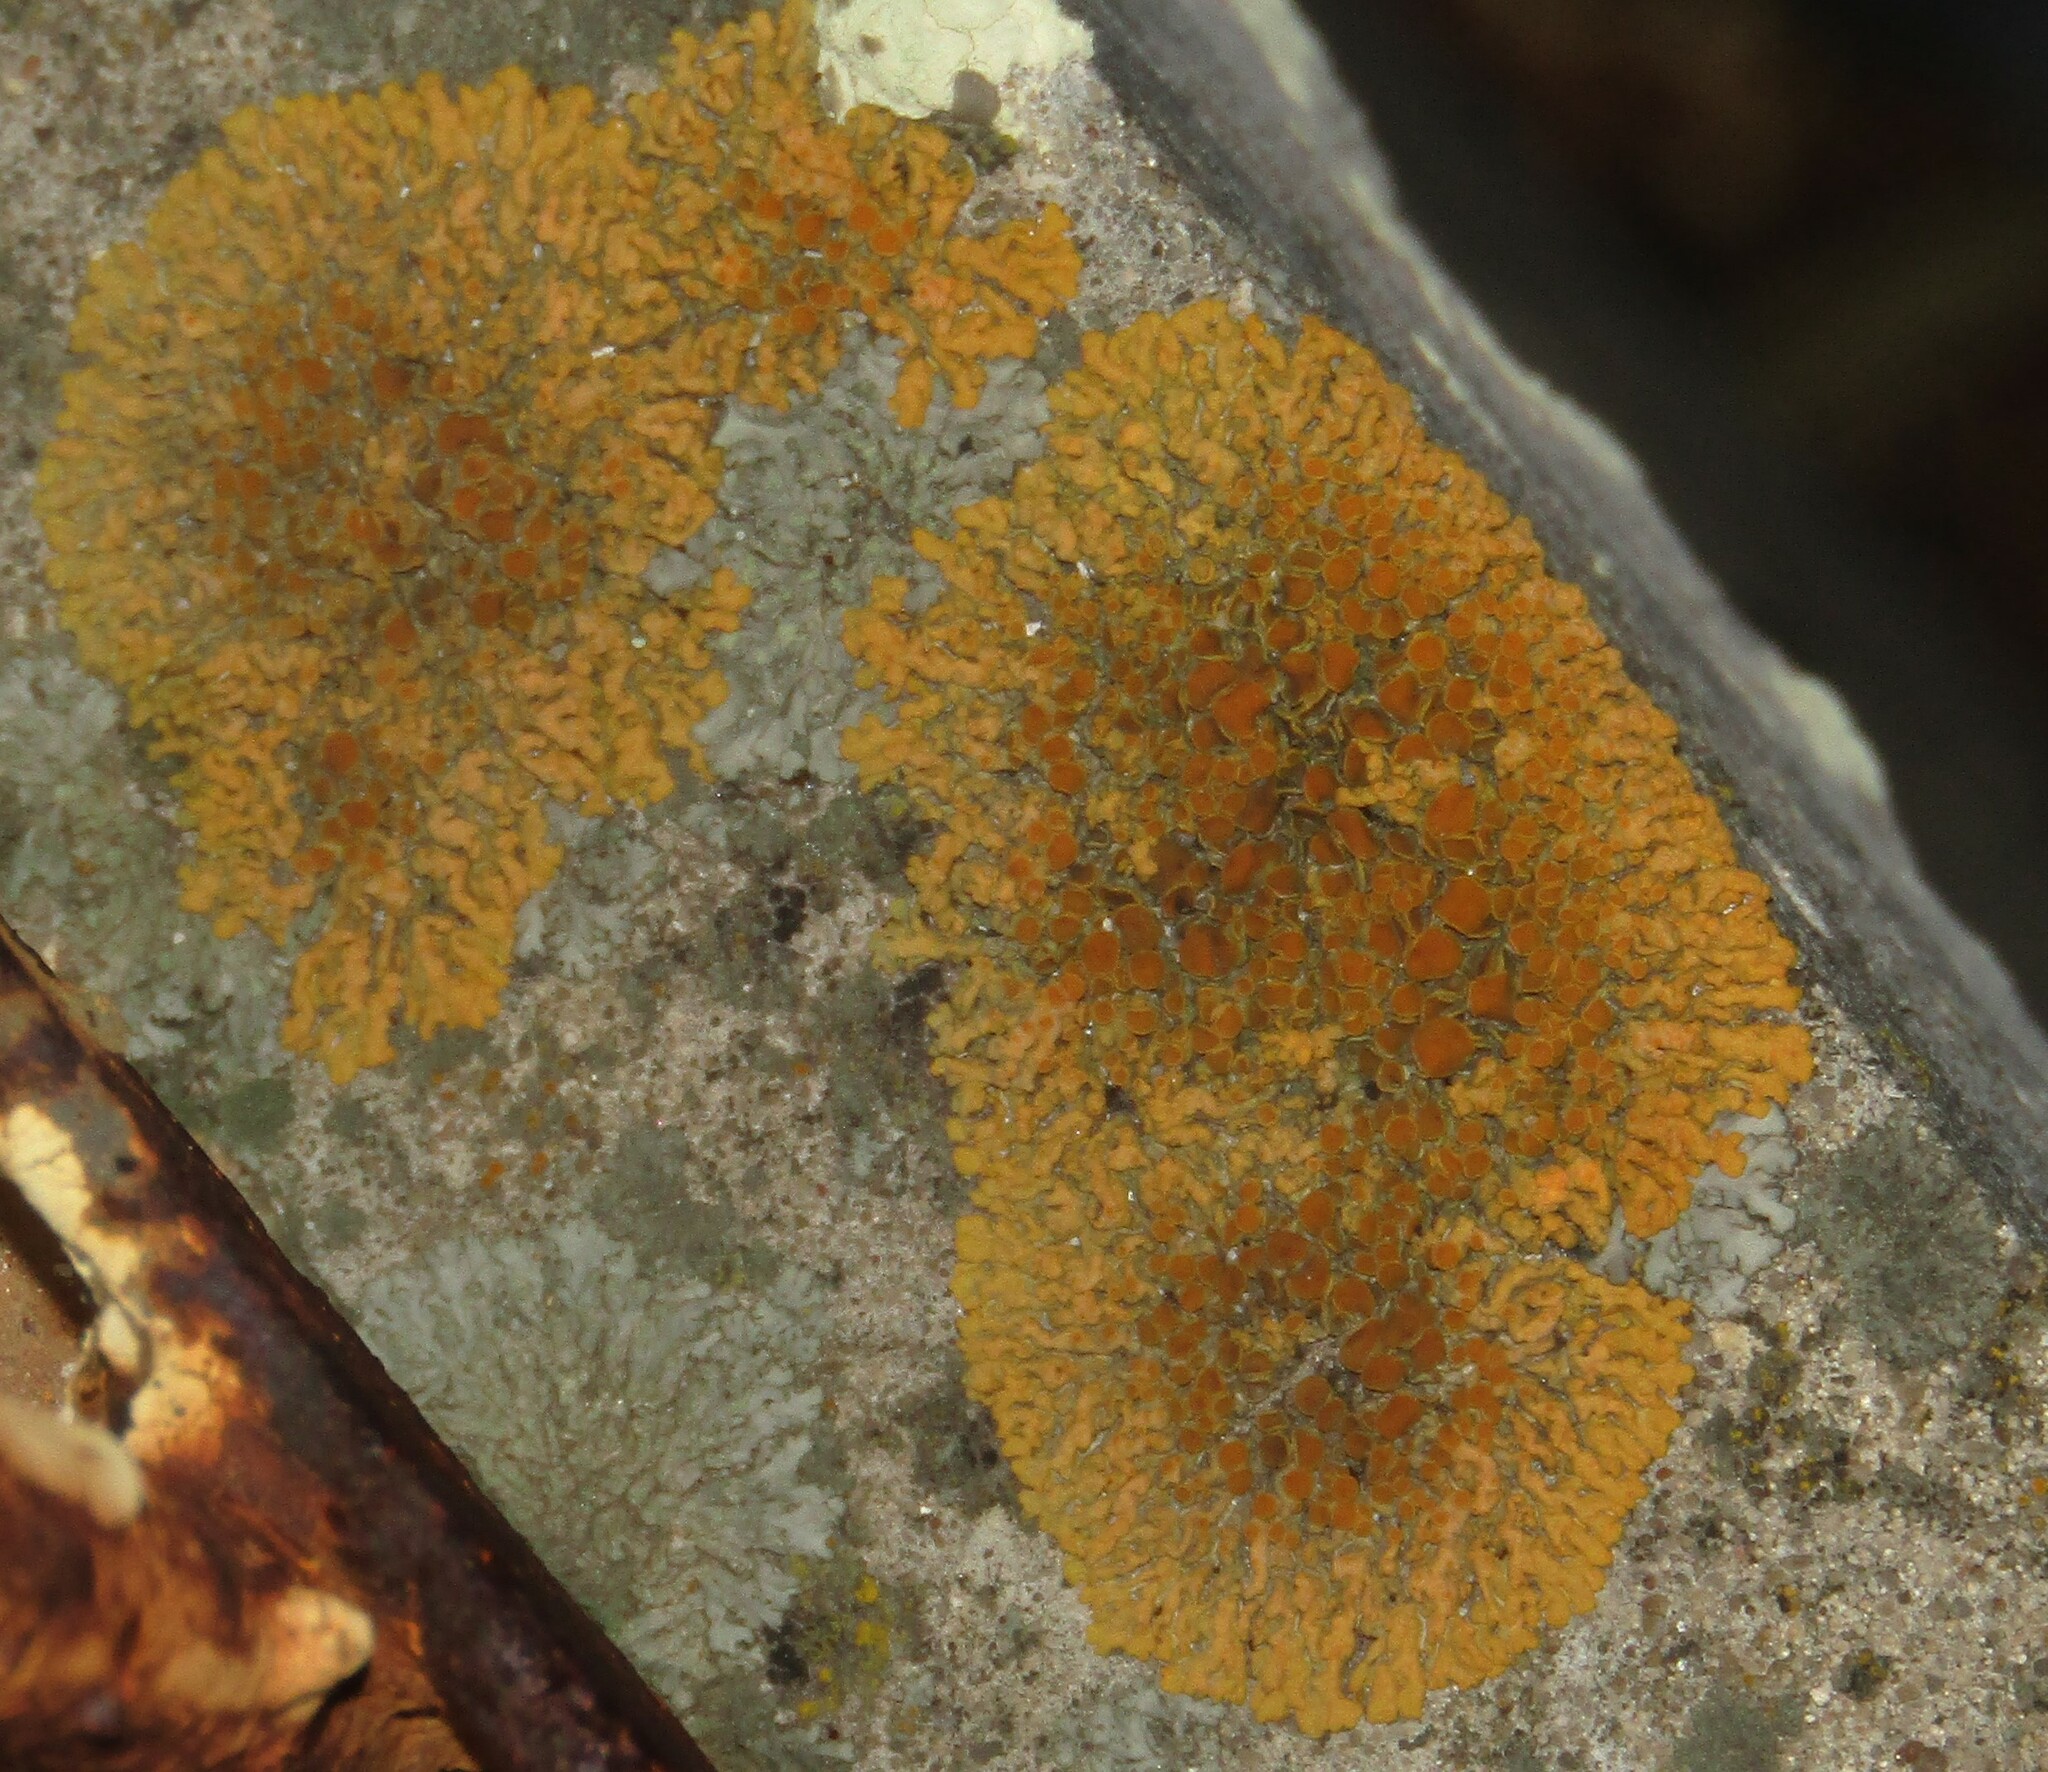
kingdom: Fungi
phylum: Ascomycota
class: Lecanoromycetes
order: Teloschistales
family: Teloschistaceae
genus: Xanthoria
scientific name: Xanthoria elegans
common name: Elegant sunburst lichen
